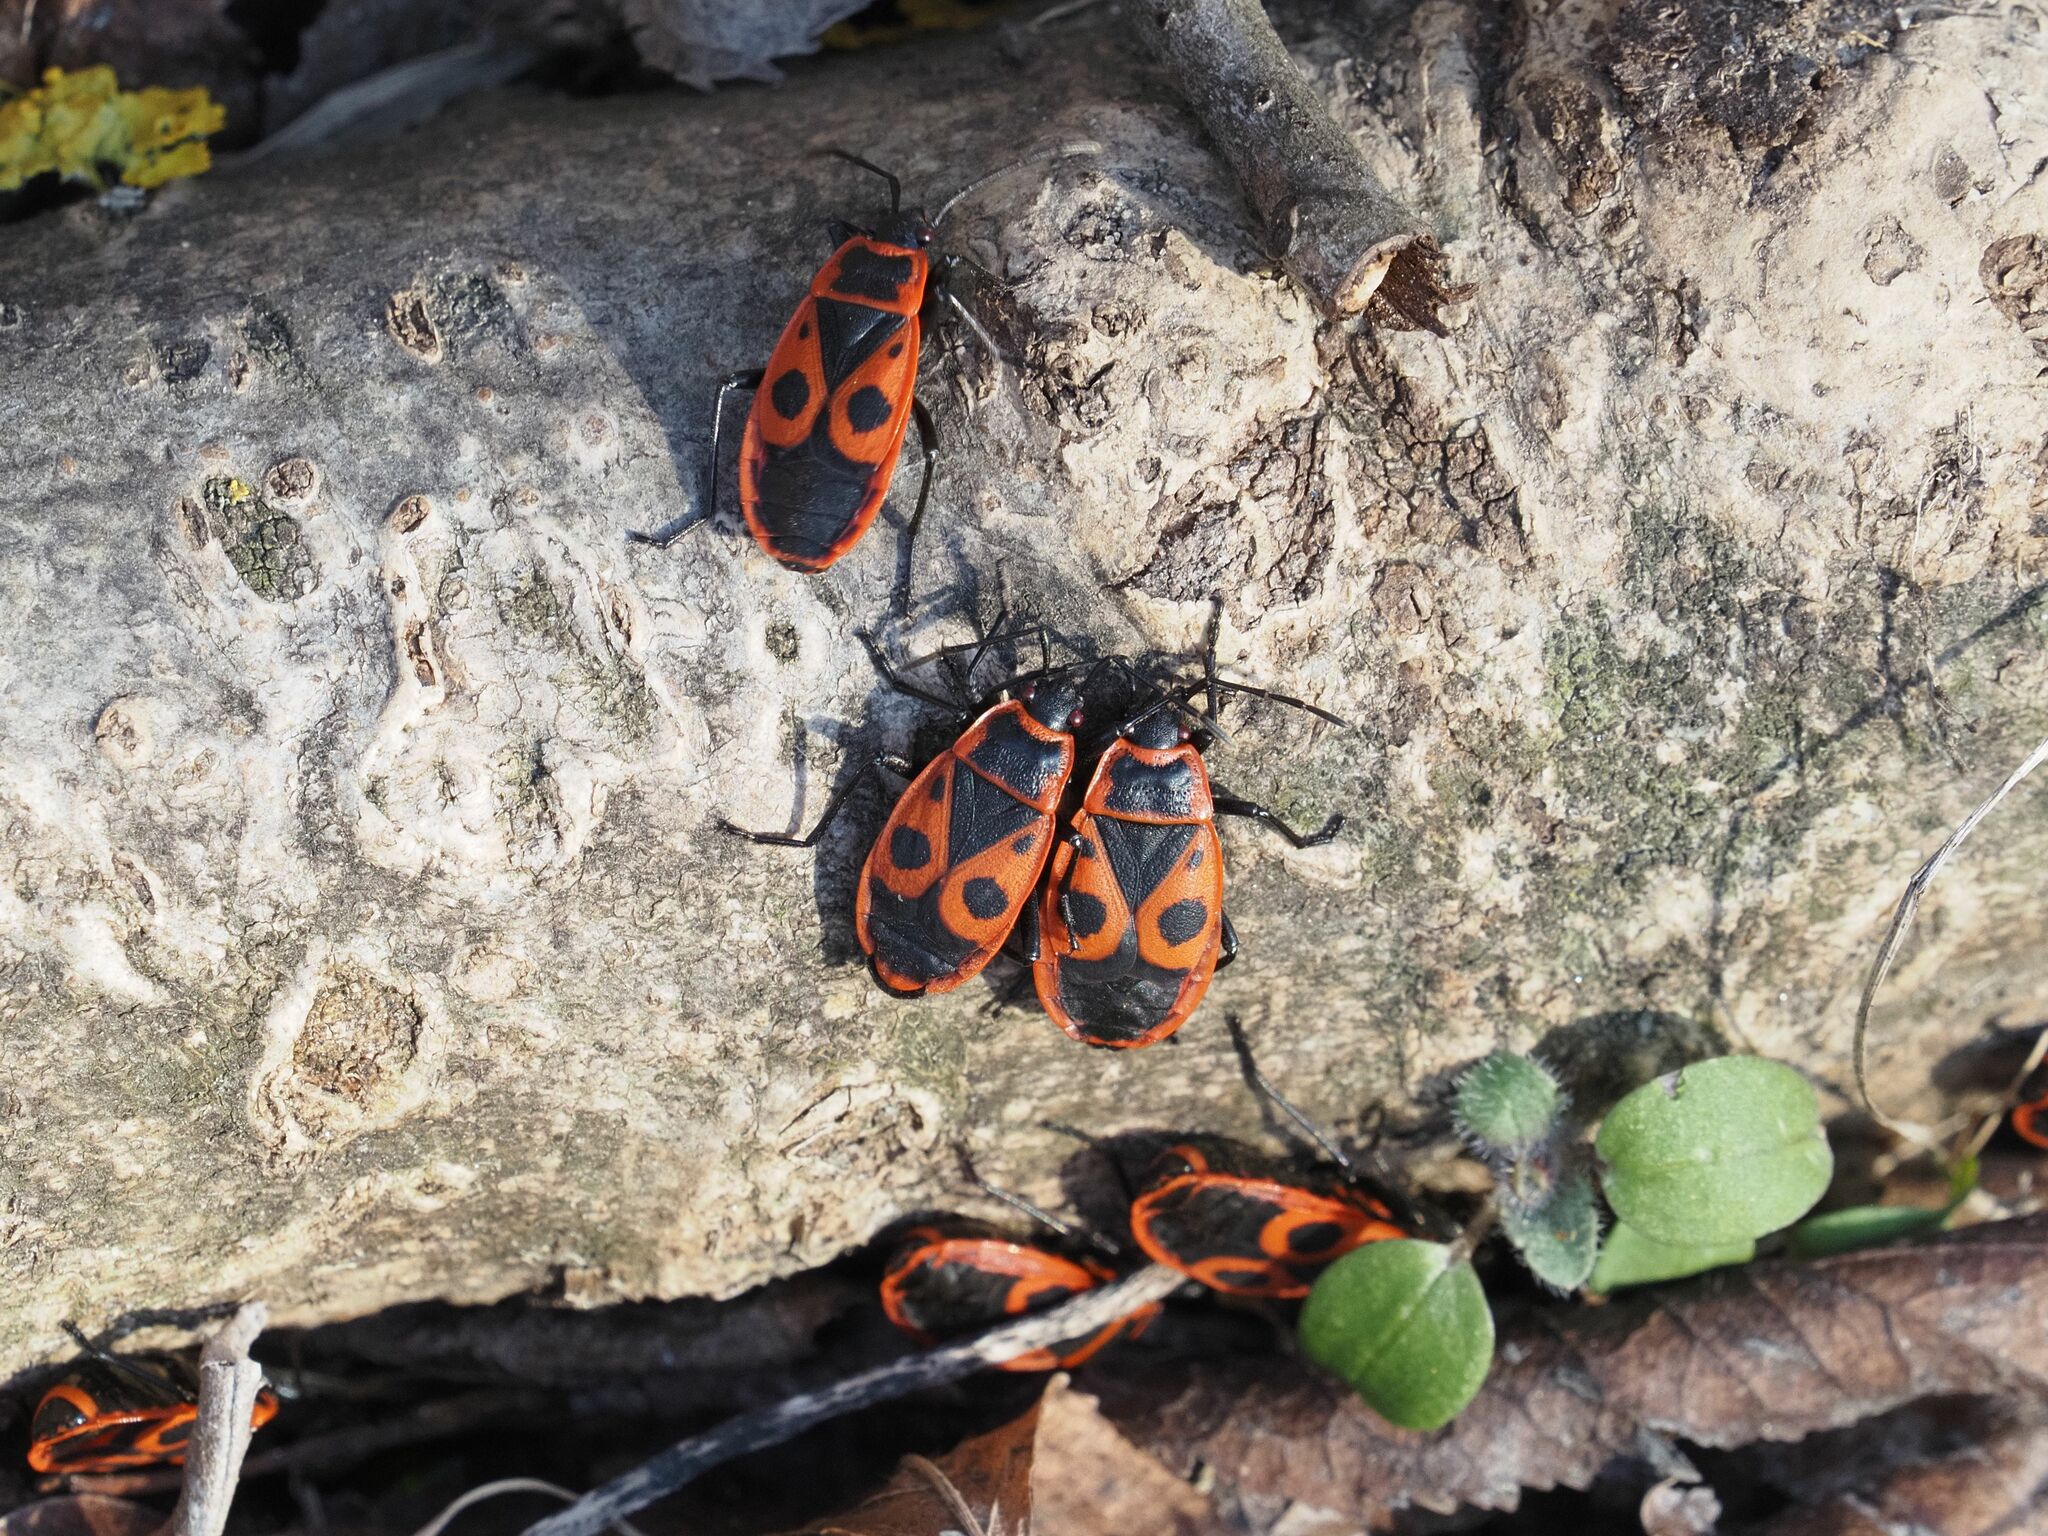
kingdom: Animalia
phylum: Arthropoda
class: Insecta
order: Hemiptera
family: Pyrrhocoridae
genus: Pyrrhocoris
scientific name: Pyrrhocoris apterus
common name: Firebug
